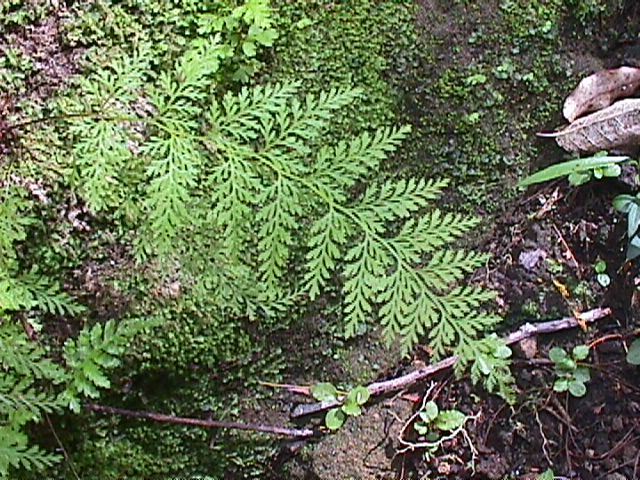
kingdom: Plantae
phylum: Tracheophyta
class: Polypodiopsida
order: Polypodiales
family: Dennstaedtiaceae
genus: Paesia
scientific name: Paesia scaberula
